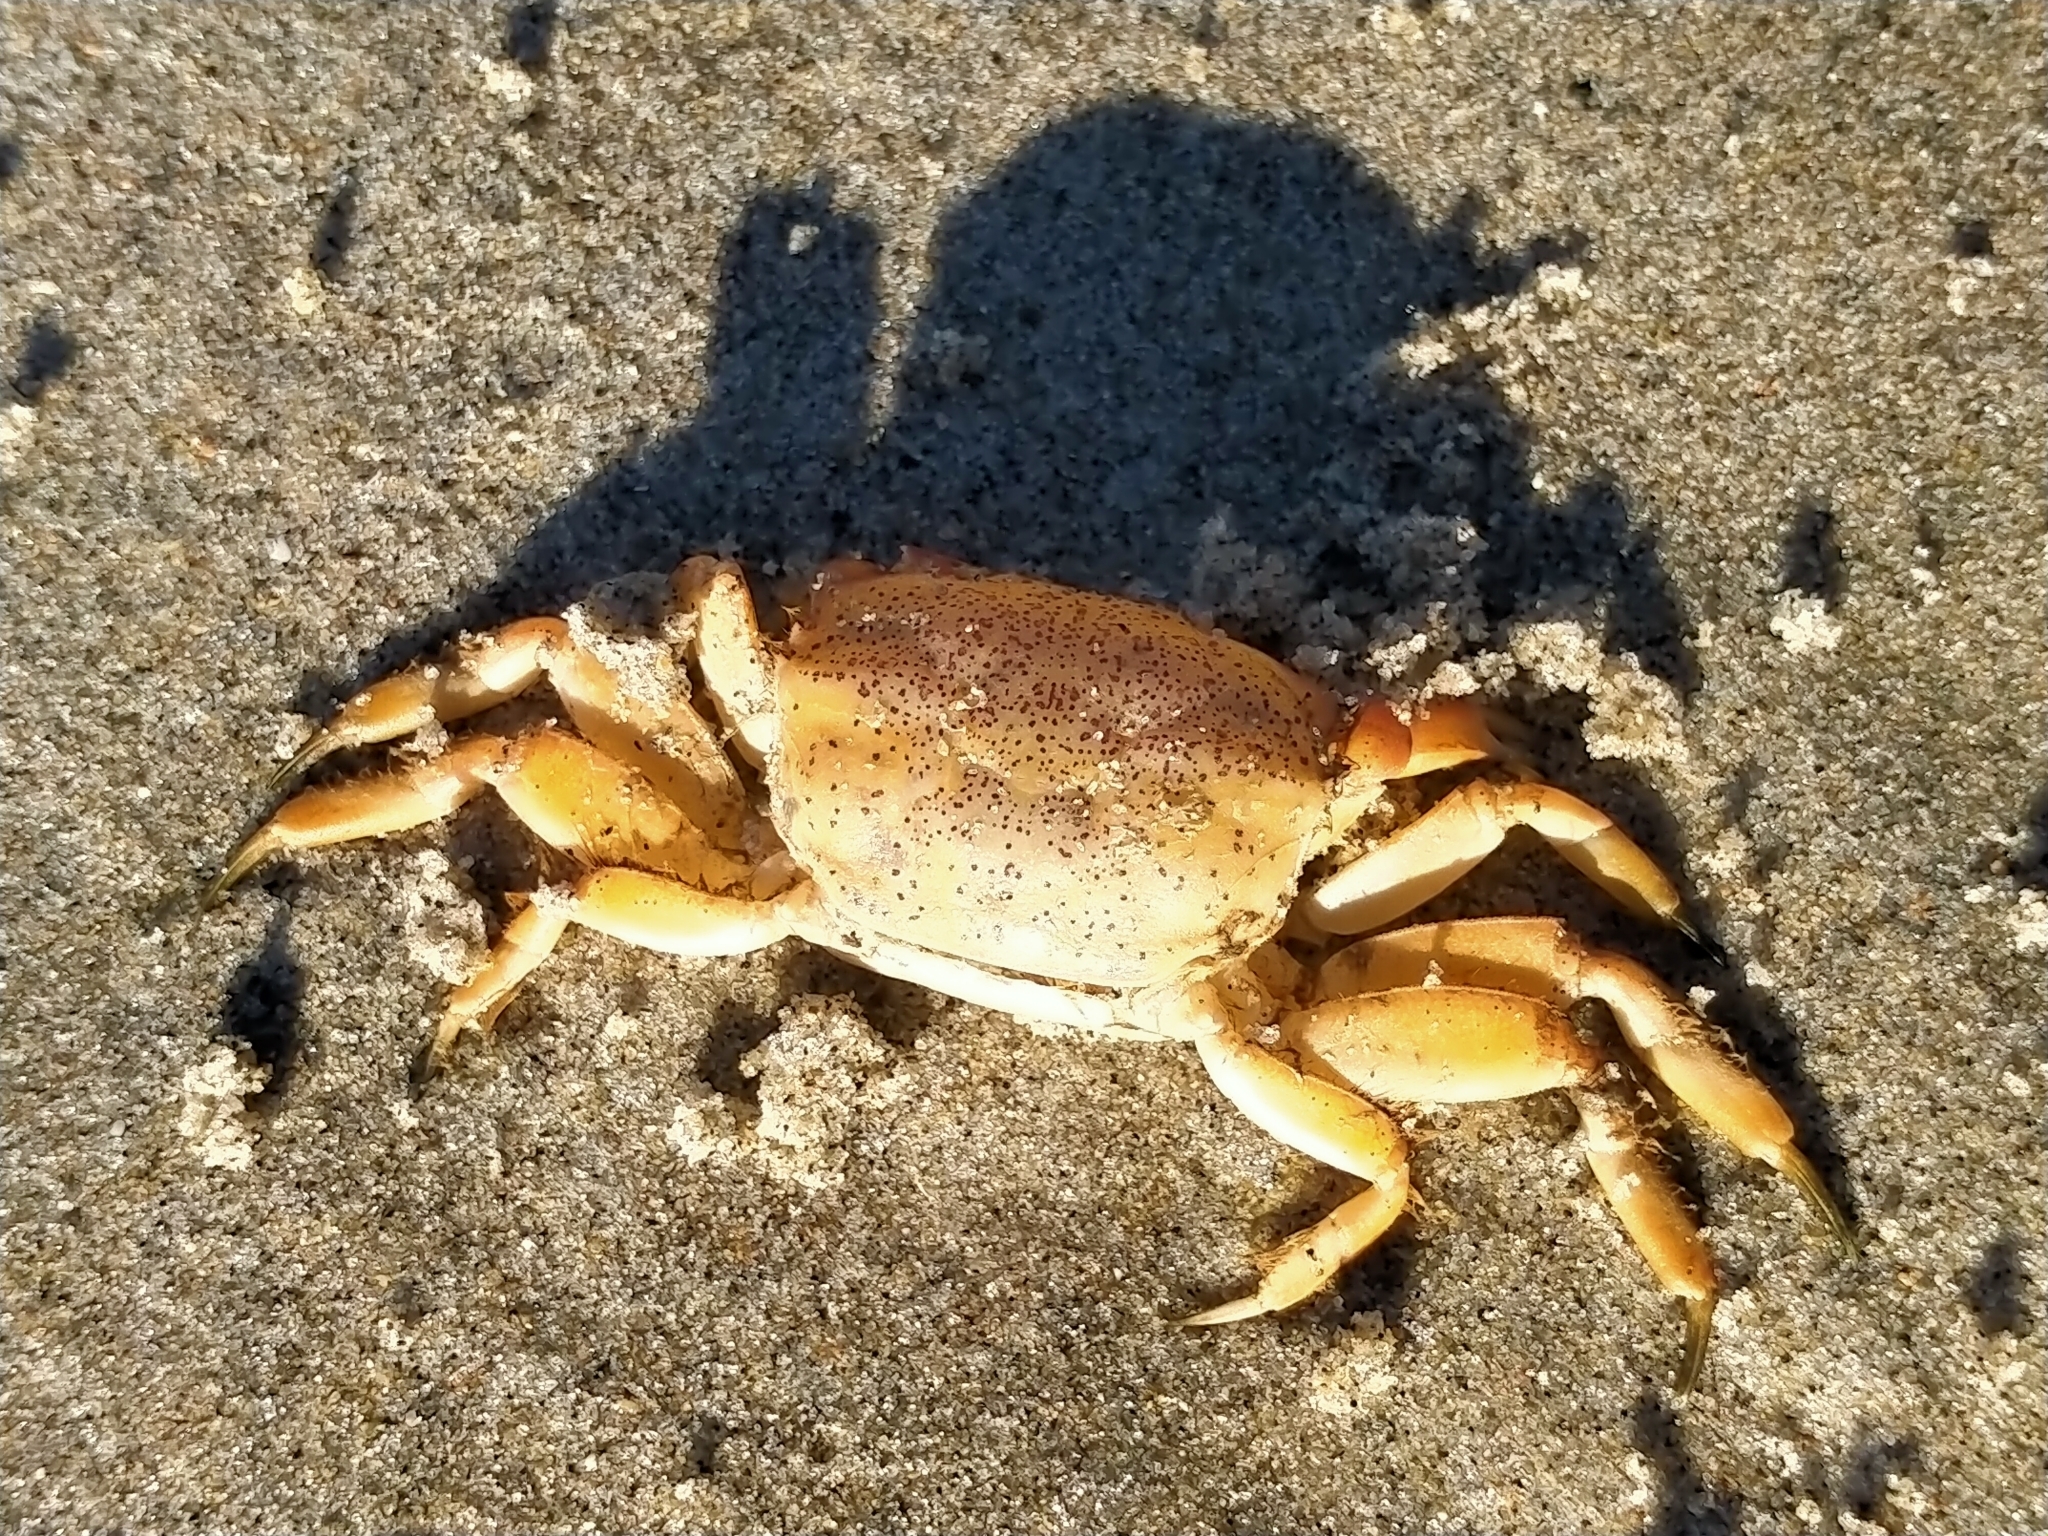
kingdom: Animalia
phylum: Arthropoda
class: Malacostraca
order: Decapoda
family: Macrophthalmidae
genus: Hemiplax
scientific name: Hemiplax hirtipes
